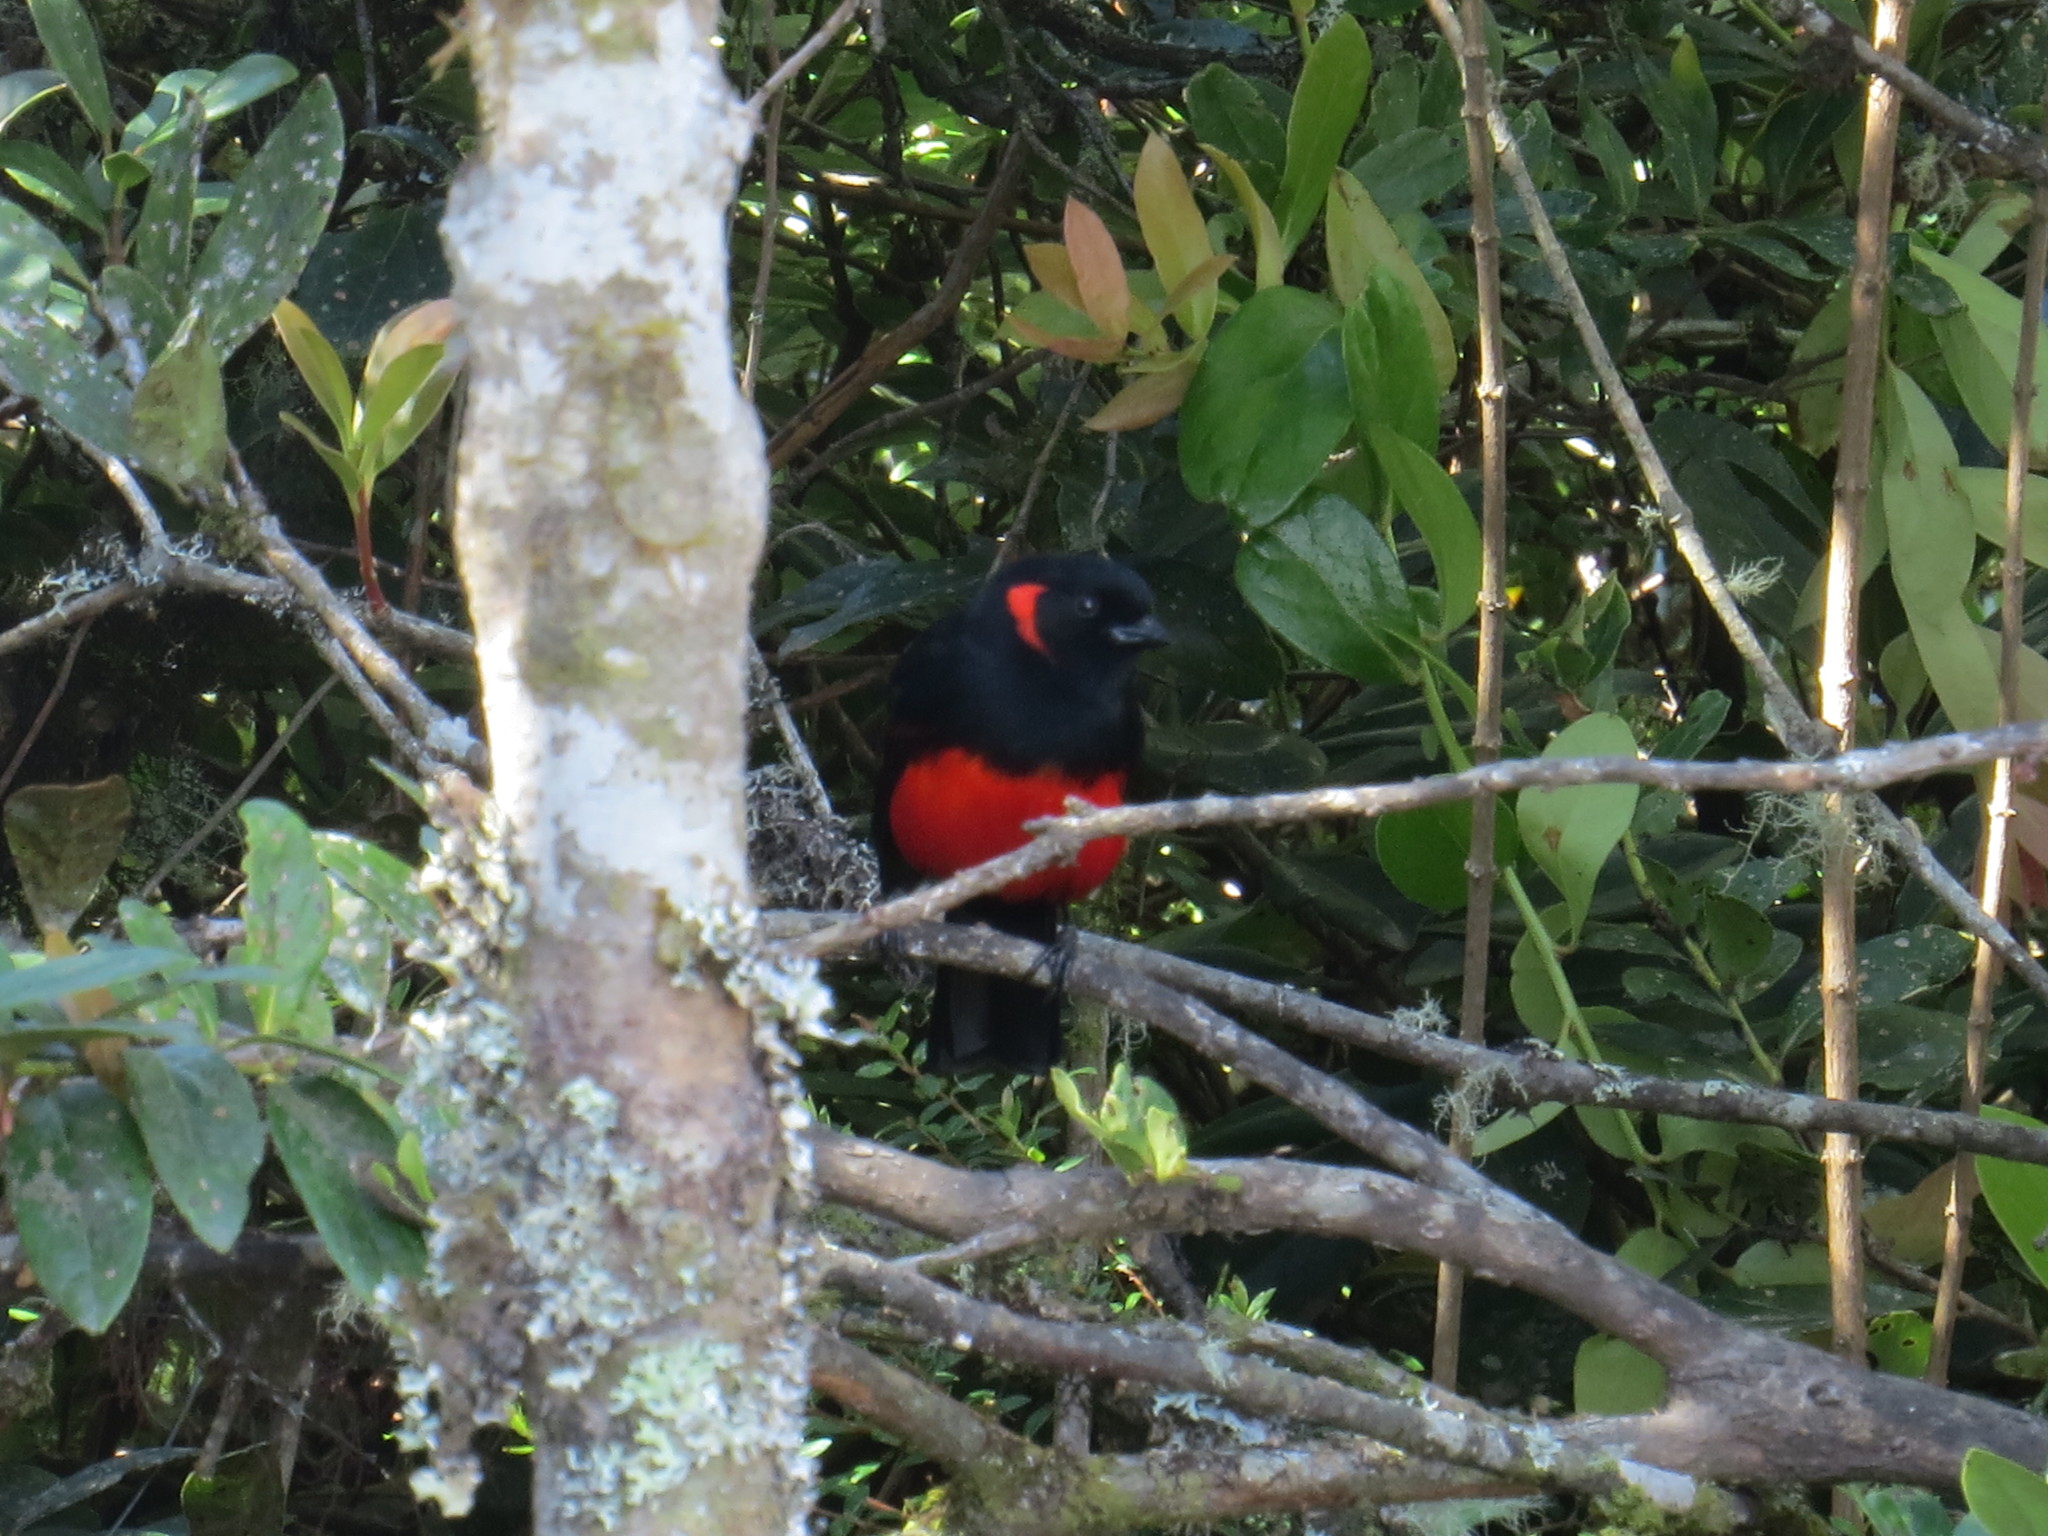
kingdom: Animalia
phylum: Chordata
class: Aves
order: Passeriformes
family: Thraupidae
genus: Anisognathus
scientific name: Anisognathus igniventris
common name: Scarlet-bellied mountain tanager
